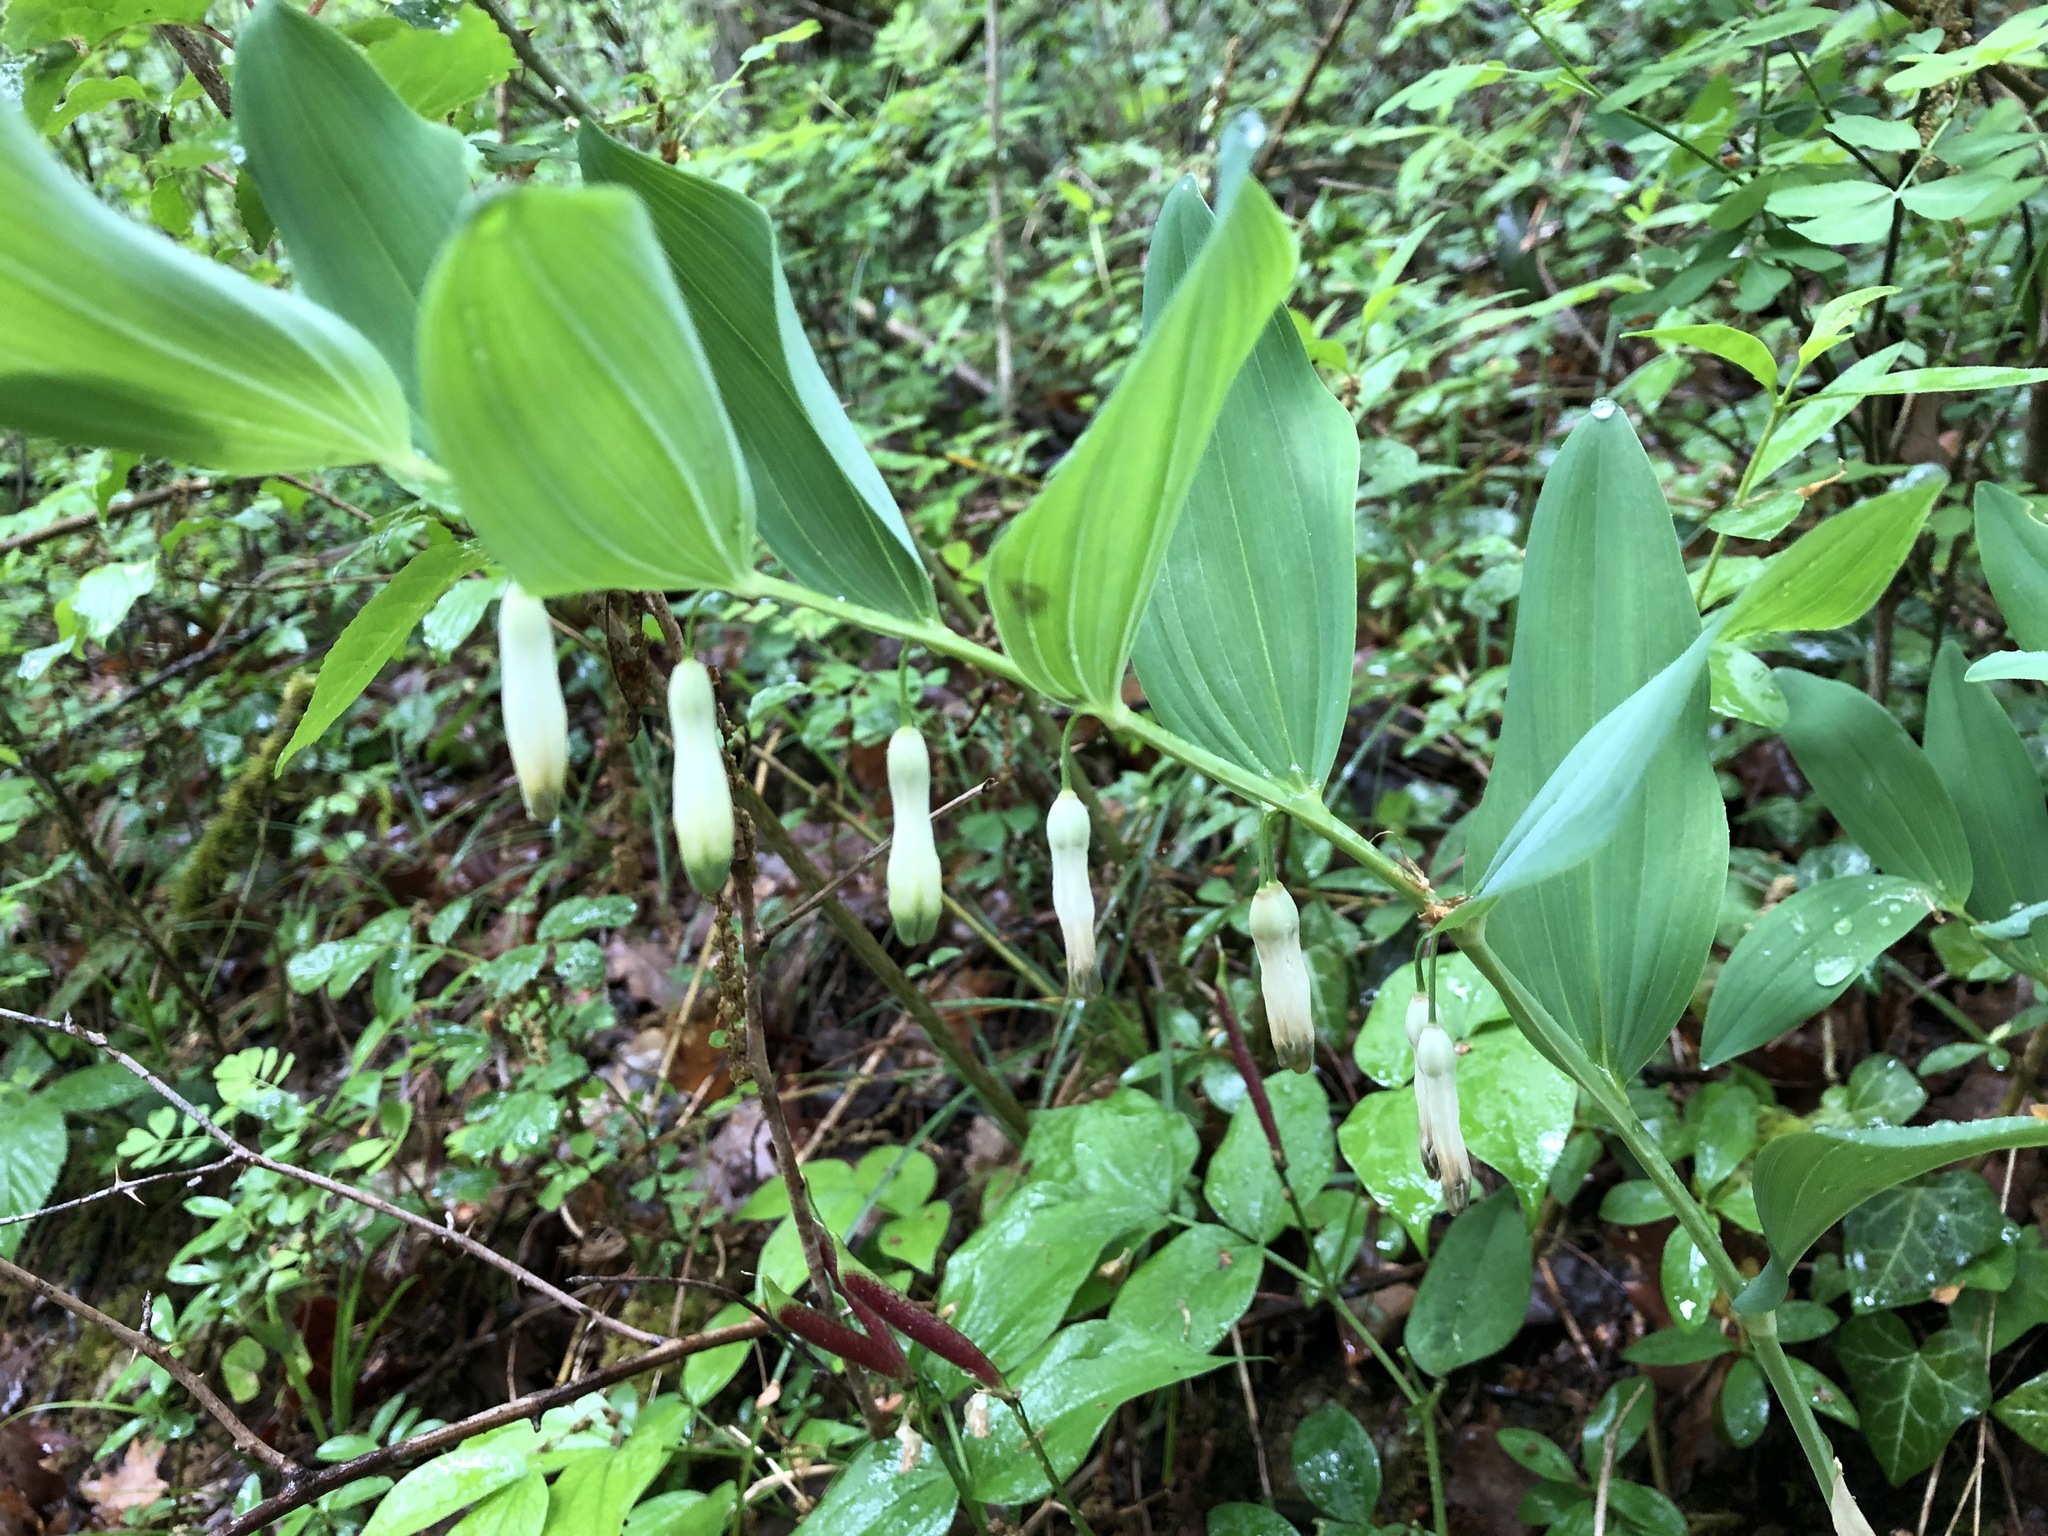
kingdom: Plantae
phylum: Tracheophyta
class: Liliopsida
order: Asparagales
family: Asparagaceae
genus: Polygonatum
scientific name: Polygonatum odoratum
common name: Angular solomon's-seal
